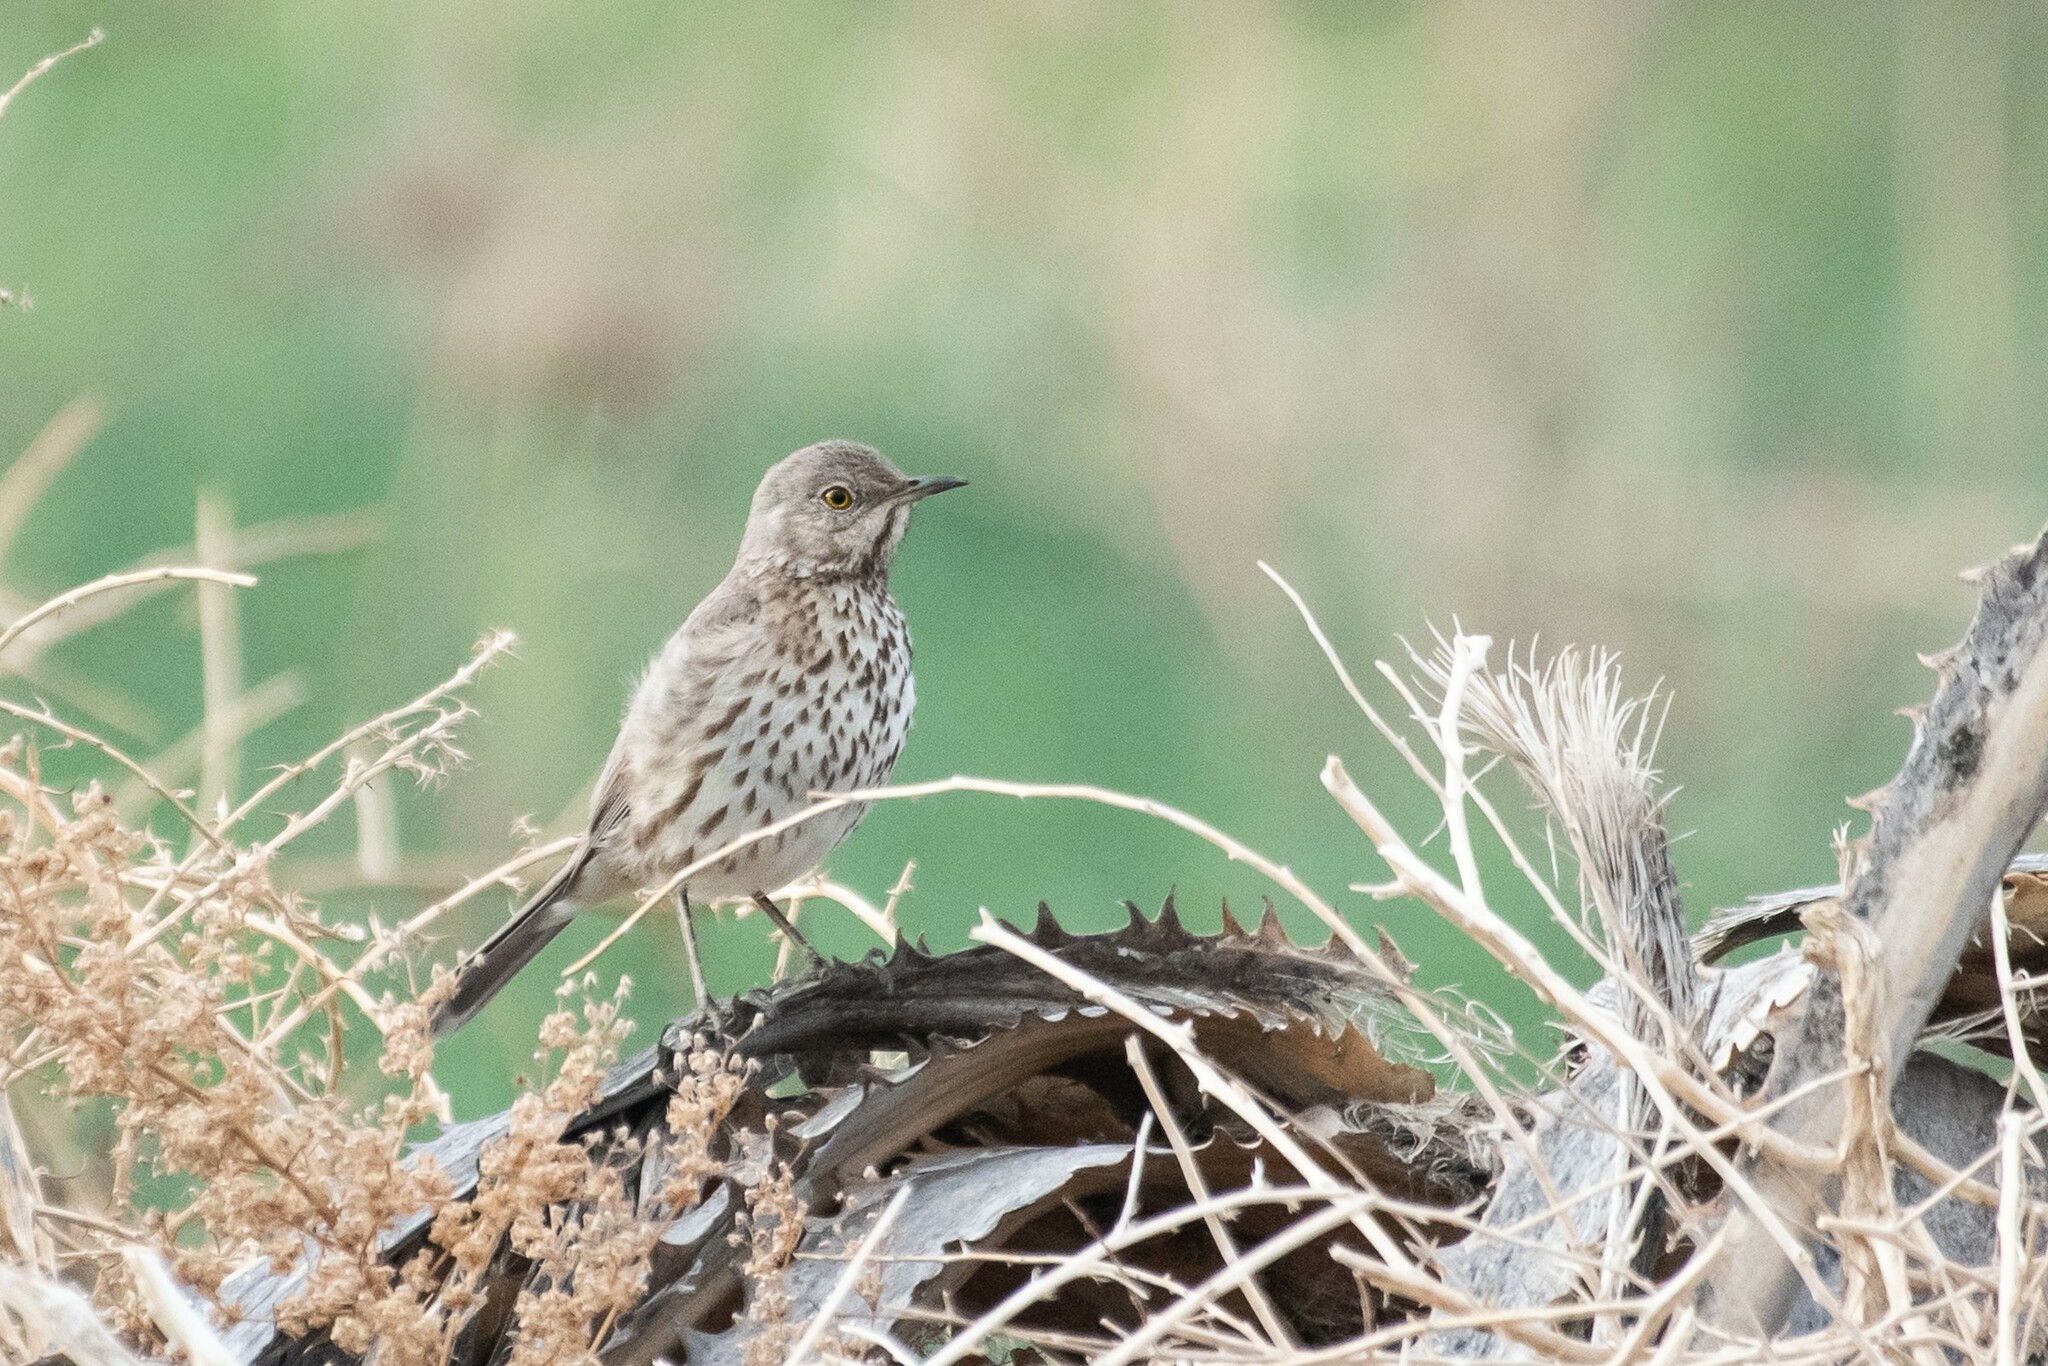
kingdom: Animalia
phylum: Chordata
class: Aves
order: Passeriformes
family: Mimidae
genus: Oreoscoptes
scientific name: Oreoscoptes montanus
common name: Sage thrasher
